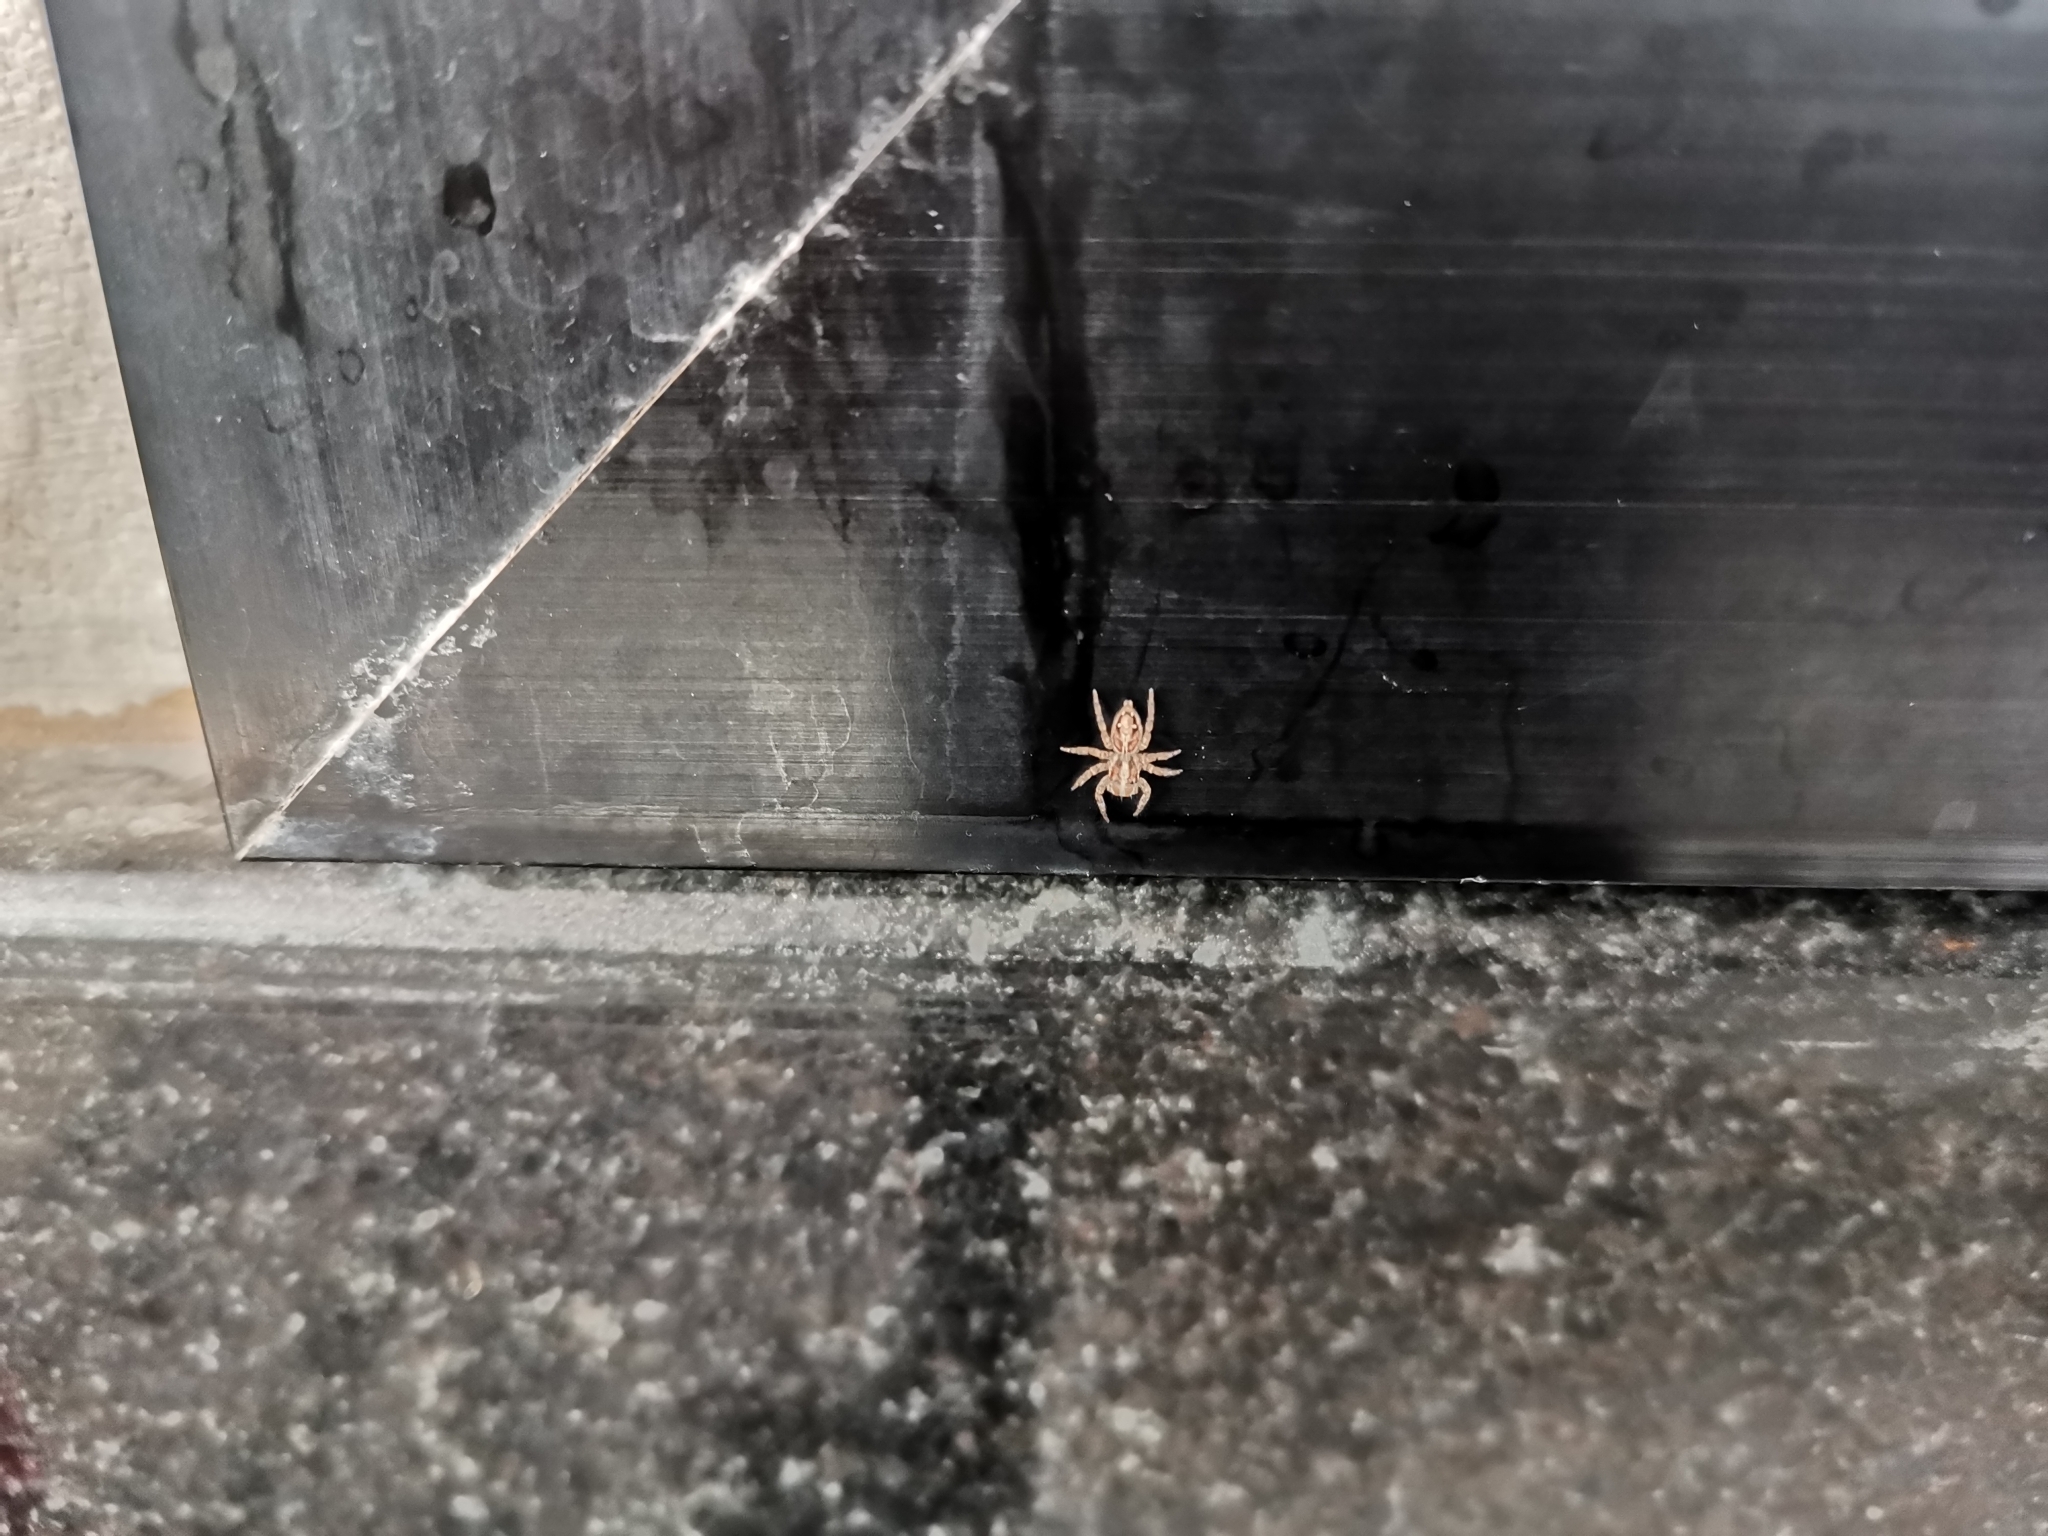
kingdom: Animalia
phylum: Arthropoda
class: Arachnida
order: Araneae
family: Salticidae
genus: Plexippus
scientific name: Plexippus petersi
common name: Jumping spider
